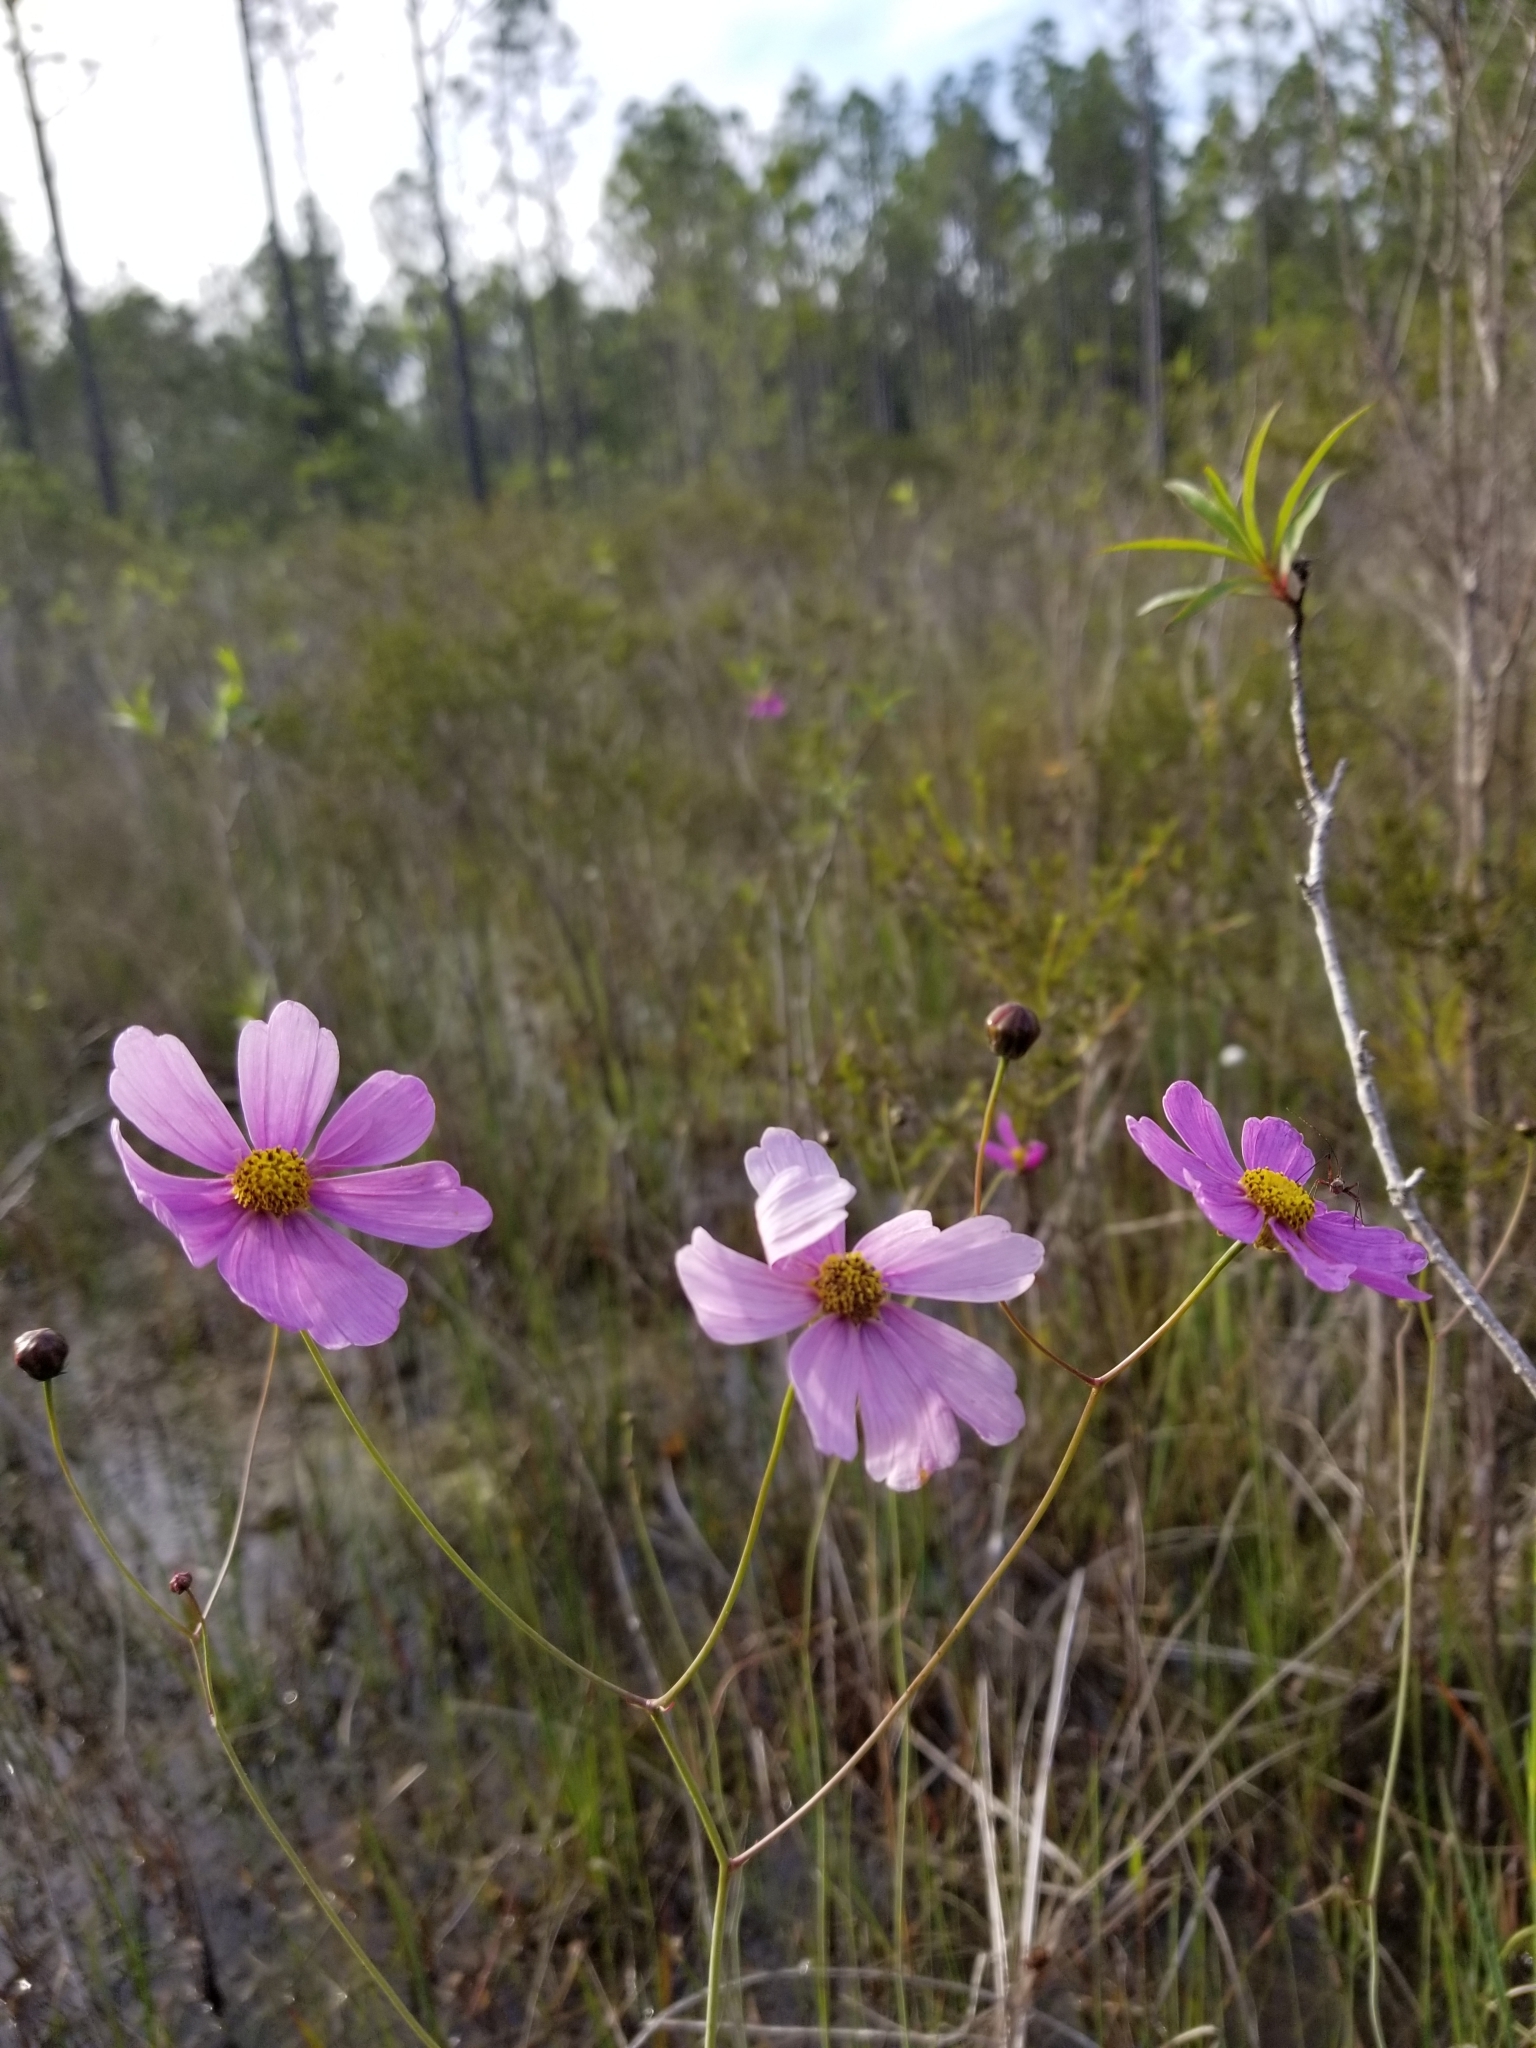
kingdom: Plantae
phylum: Tracheophyta
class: Magnoliopsida
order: Asterales
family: Asteraceae
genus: Coreopsis
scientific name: Coreopsis nudata
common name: Purple tickseed
